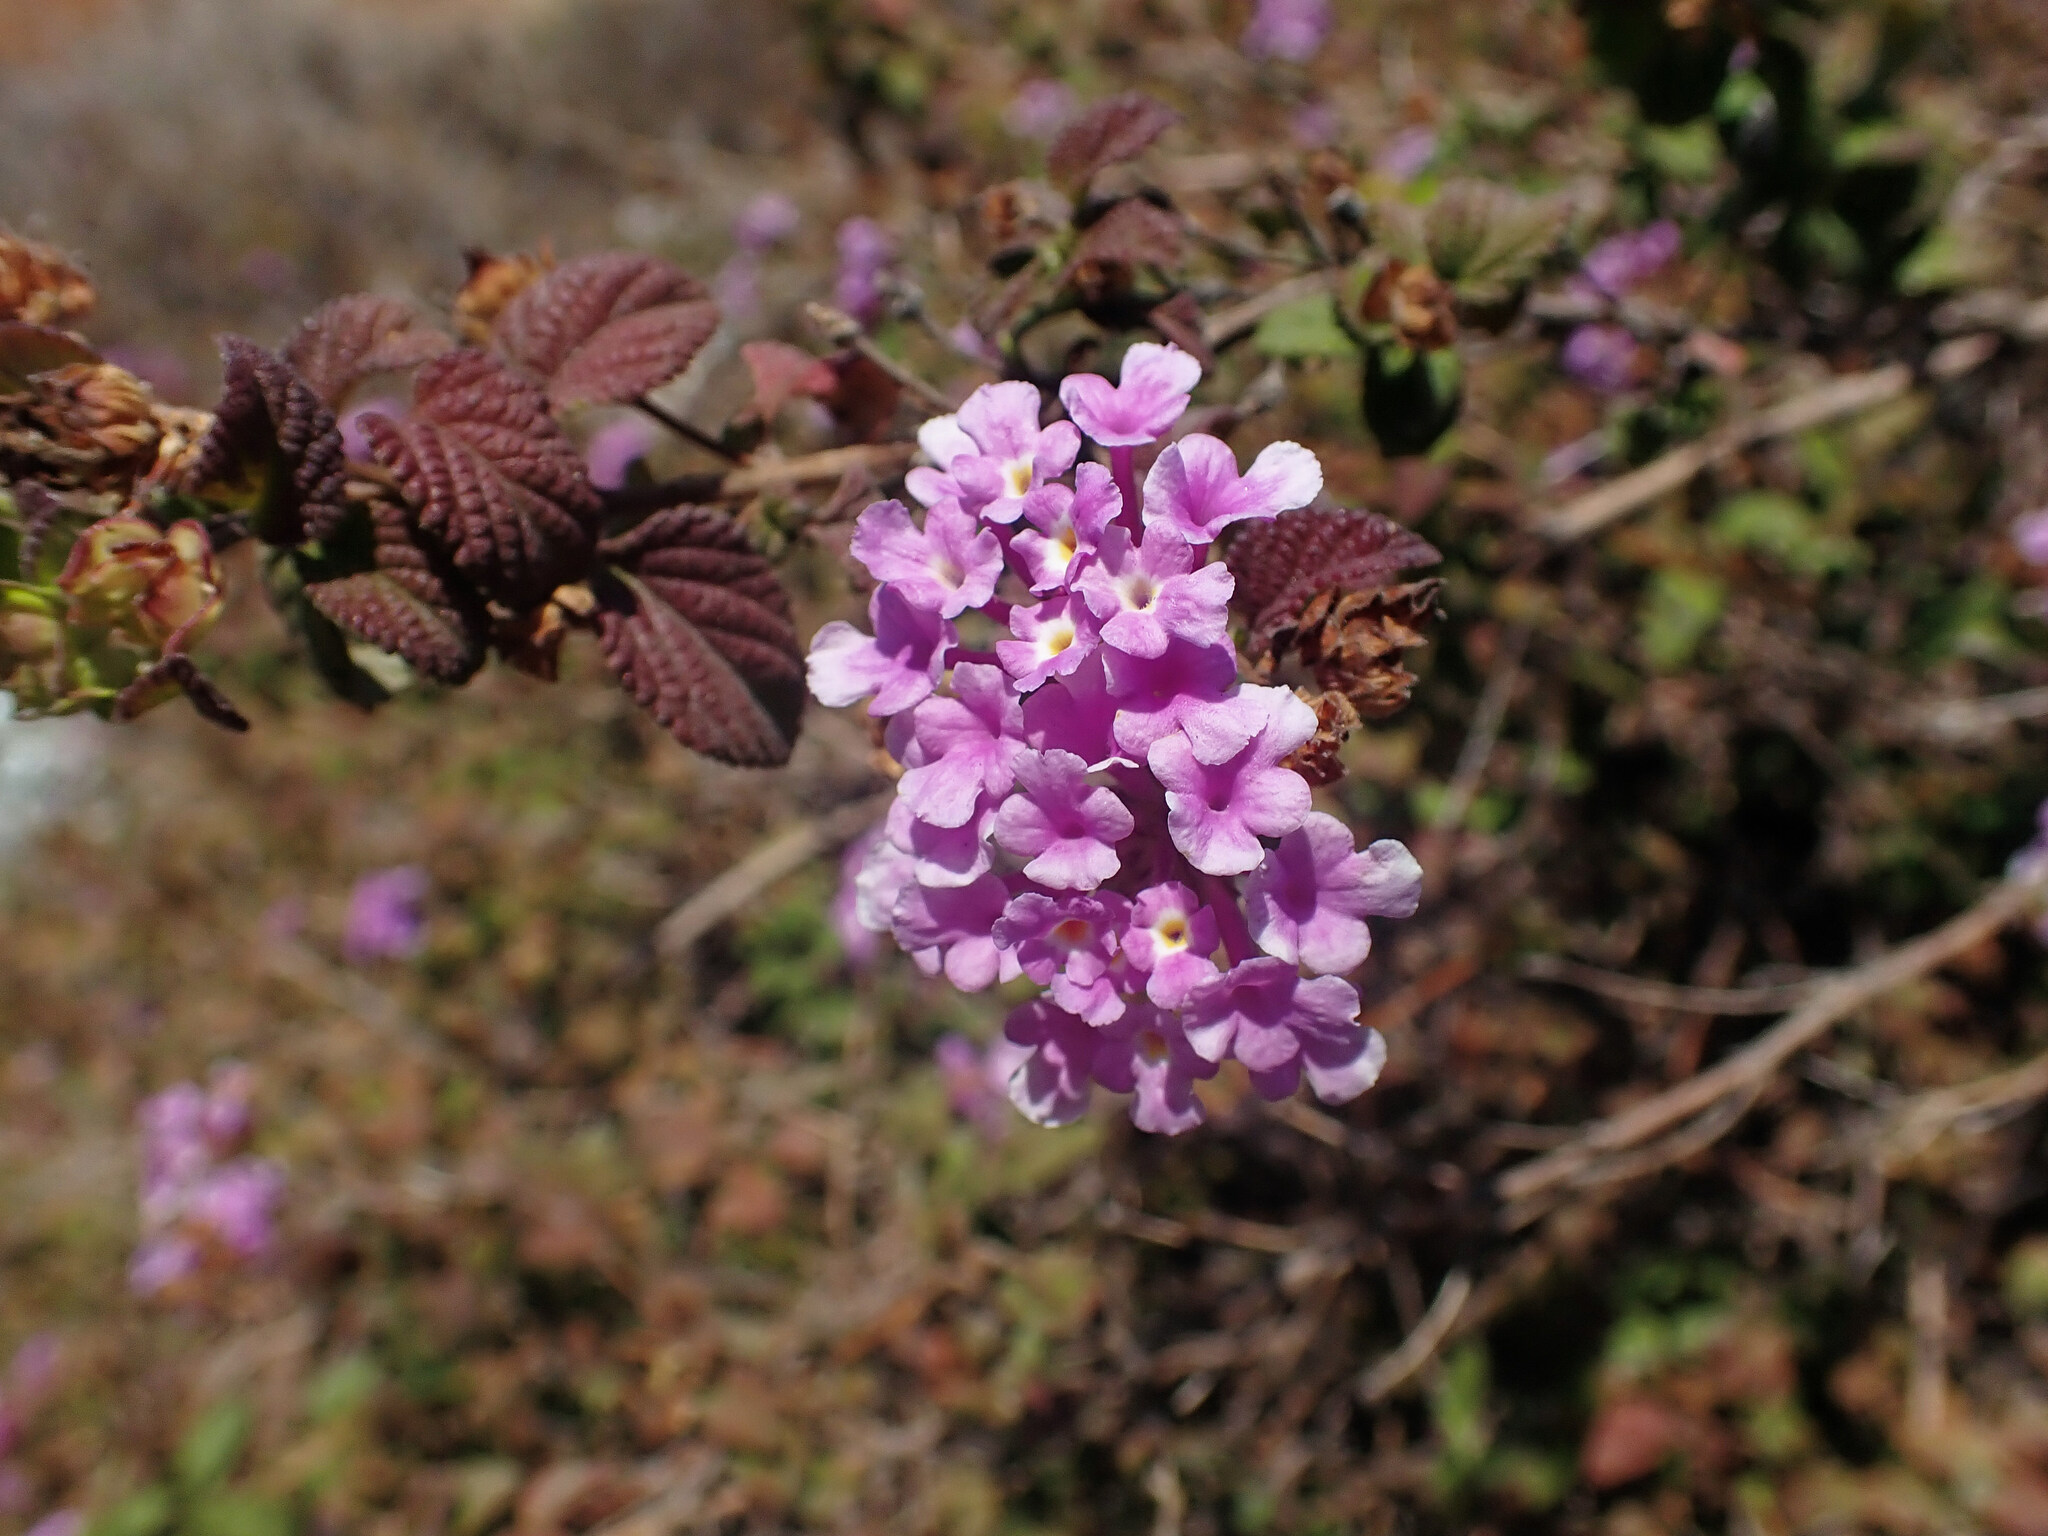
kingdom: Plantae
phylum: Tracheophyta
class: Magnoliopsida
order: Lamiales
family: Verbenaceae
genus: Lantana
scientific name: Lantana montevidensis
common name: Trailing shrubverbena
